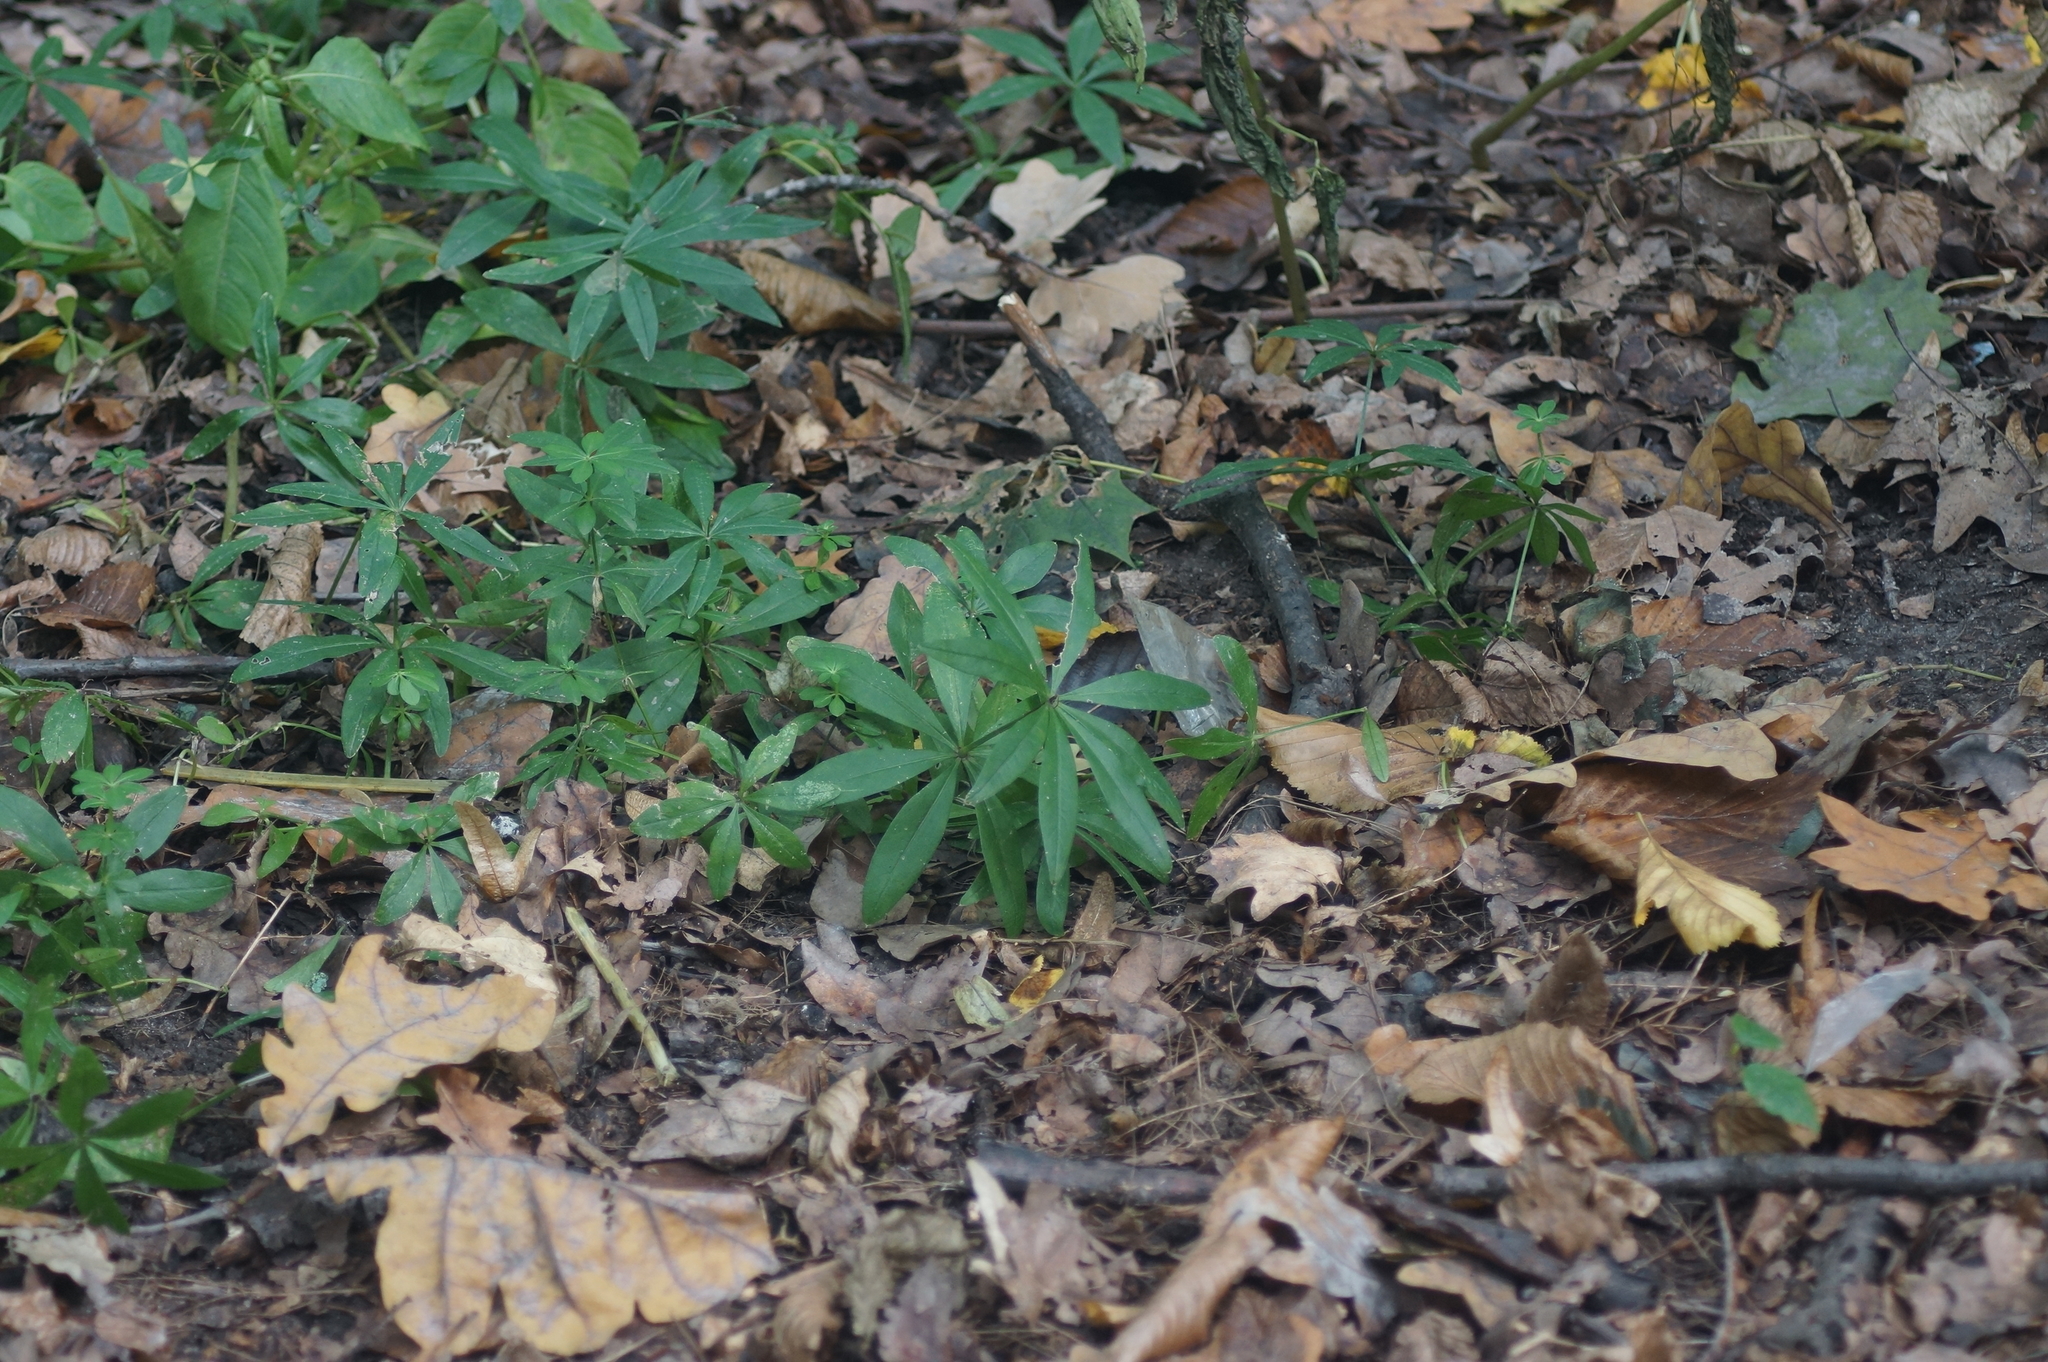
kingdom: Plantae
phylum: Tracheophyta
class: Magnoliopsida
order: Gentianales
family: Rubiaceae
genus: Galium
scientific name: Galium odoratum
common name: Sweet woodruff
